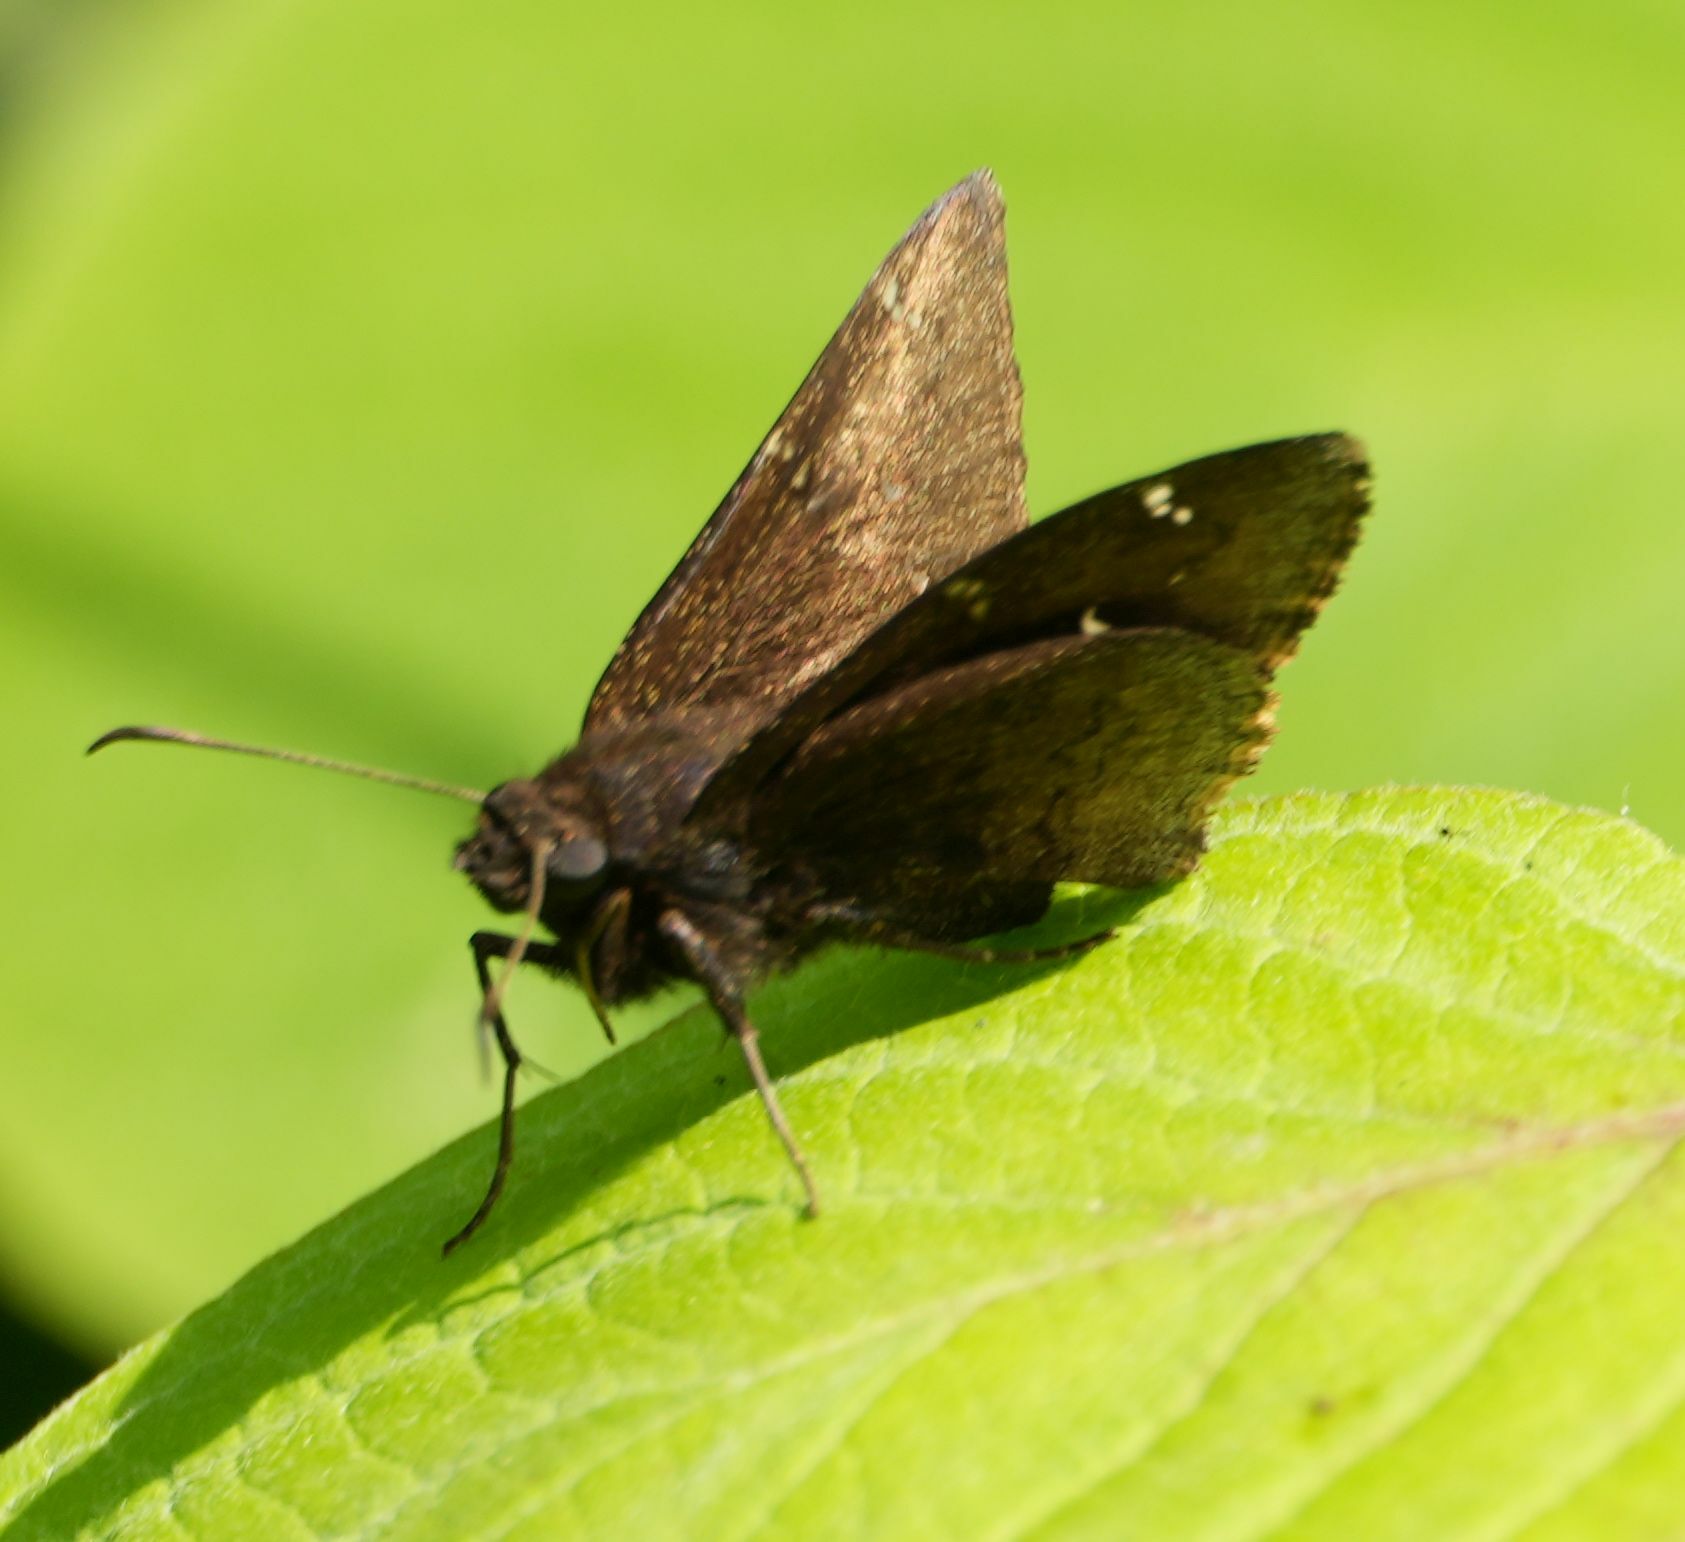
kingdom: Animalia
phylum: Arthropoda
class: Insecta
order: Lepidoptera
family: Hesperiidae
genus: Thorybes
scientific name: Thorybes pylades
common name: Northern cloudywing
